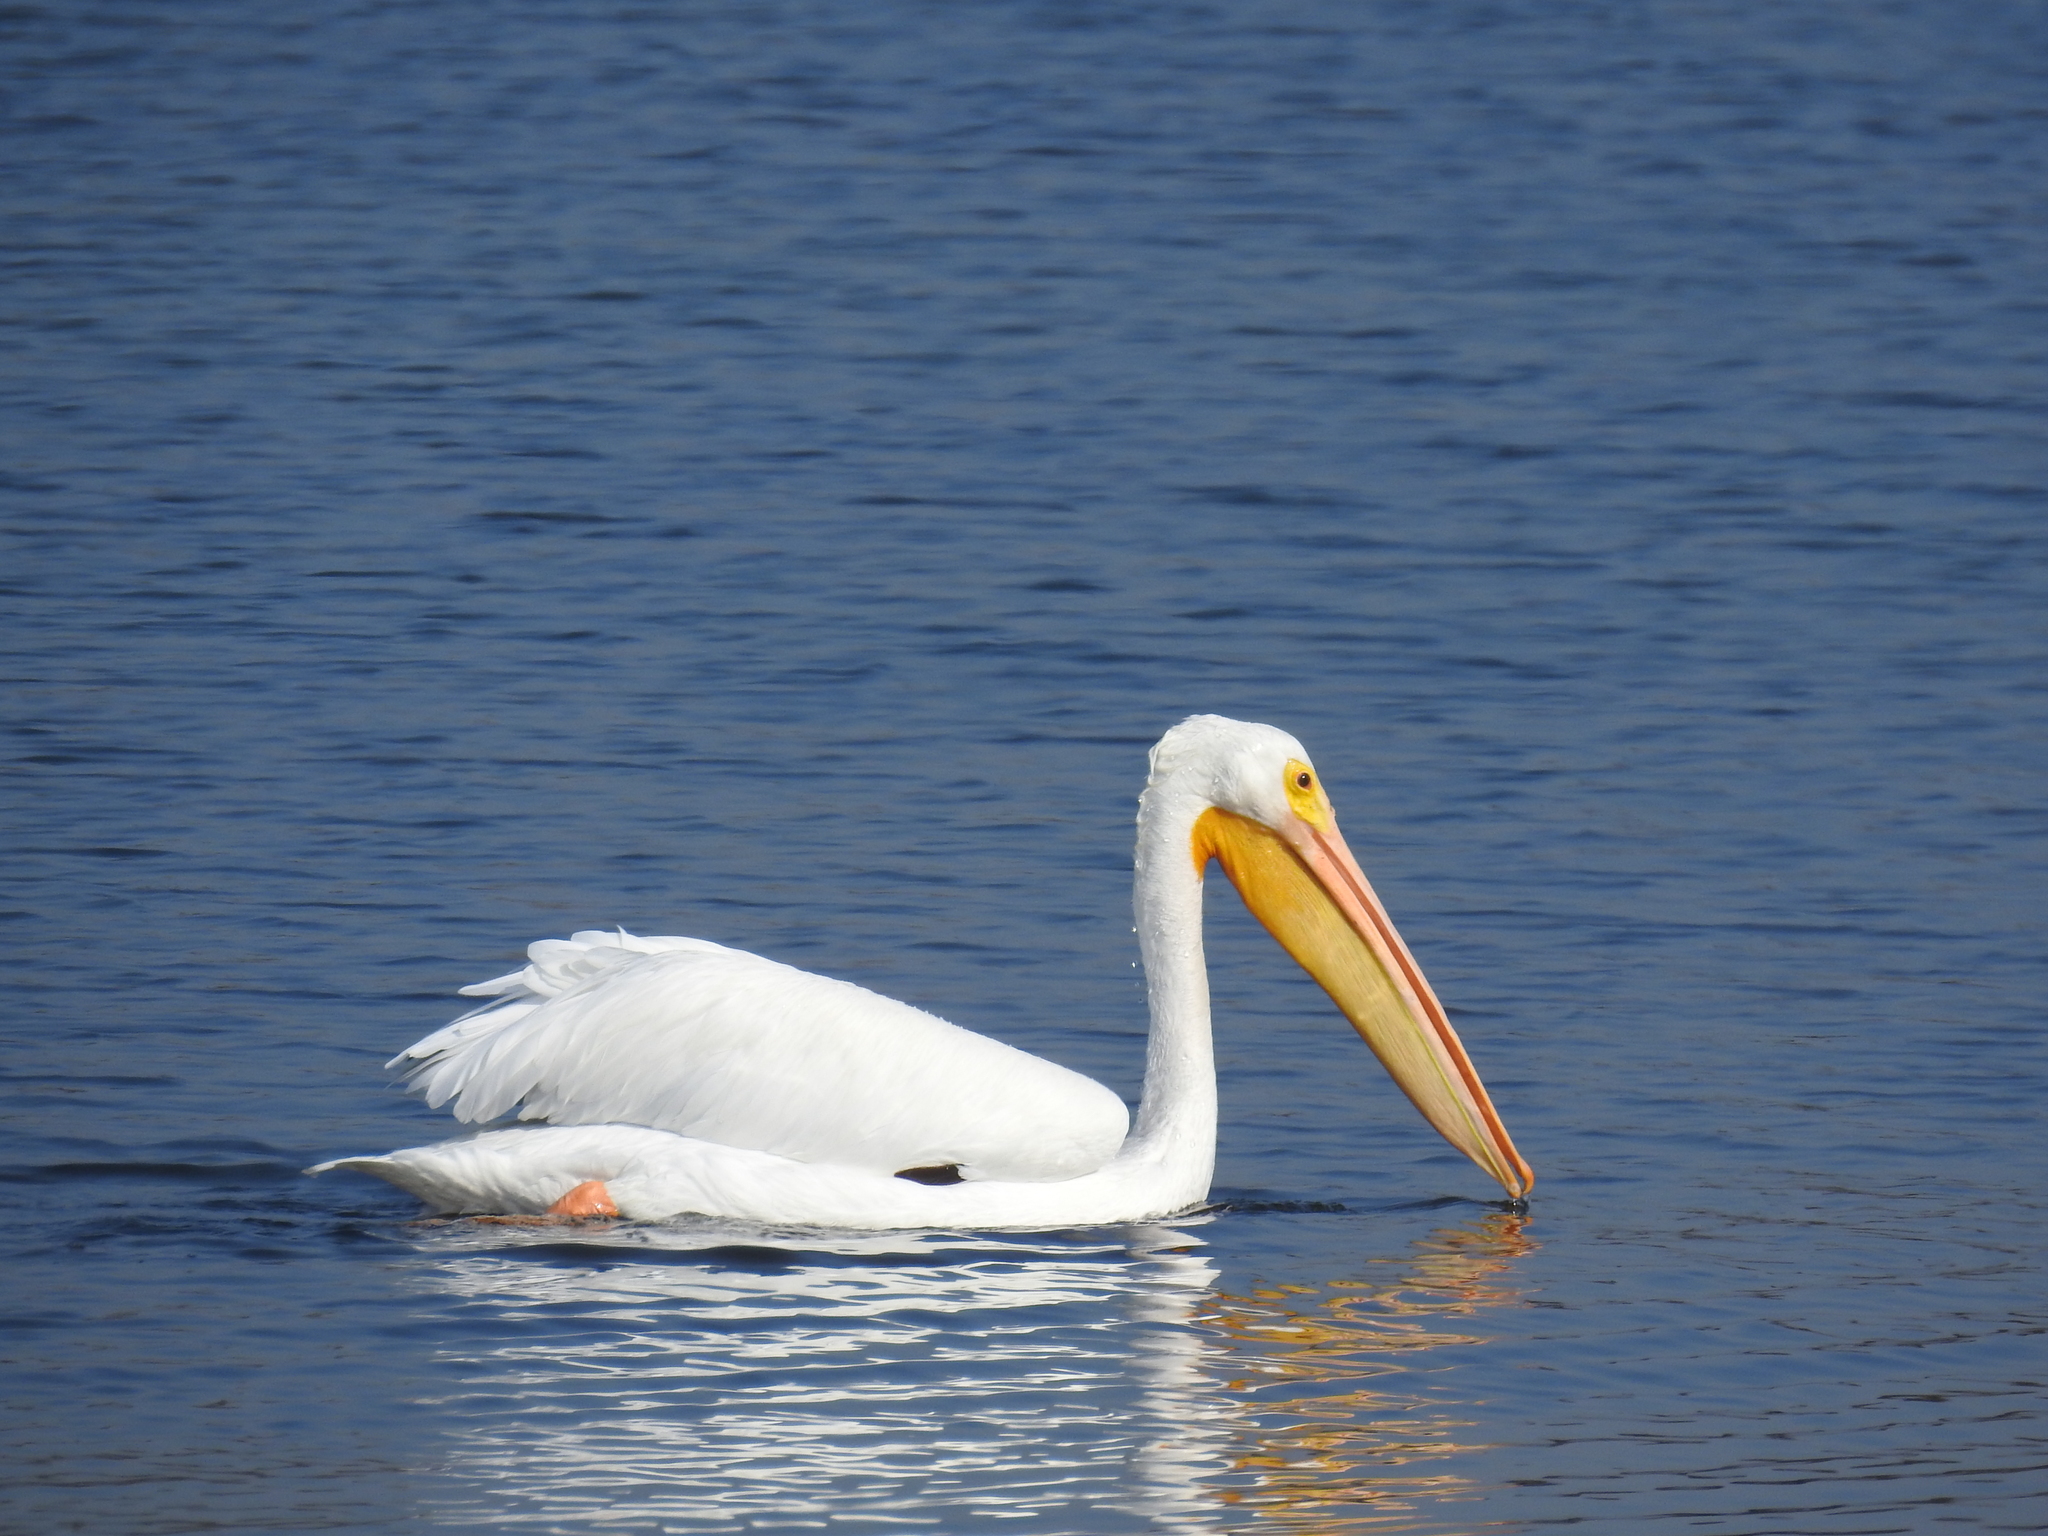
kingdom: Animalia
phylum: Chordata
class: Aves
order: Pelecaniformes
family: Pelecanidae
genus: Pelecanus
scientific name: Pelecanus erythrorhynchos
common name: American white pelican
